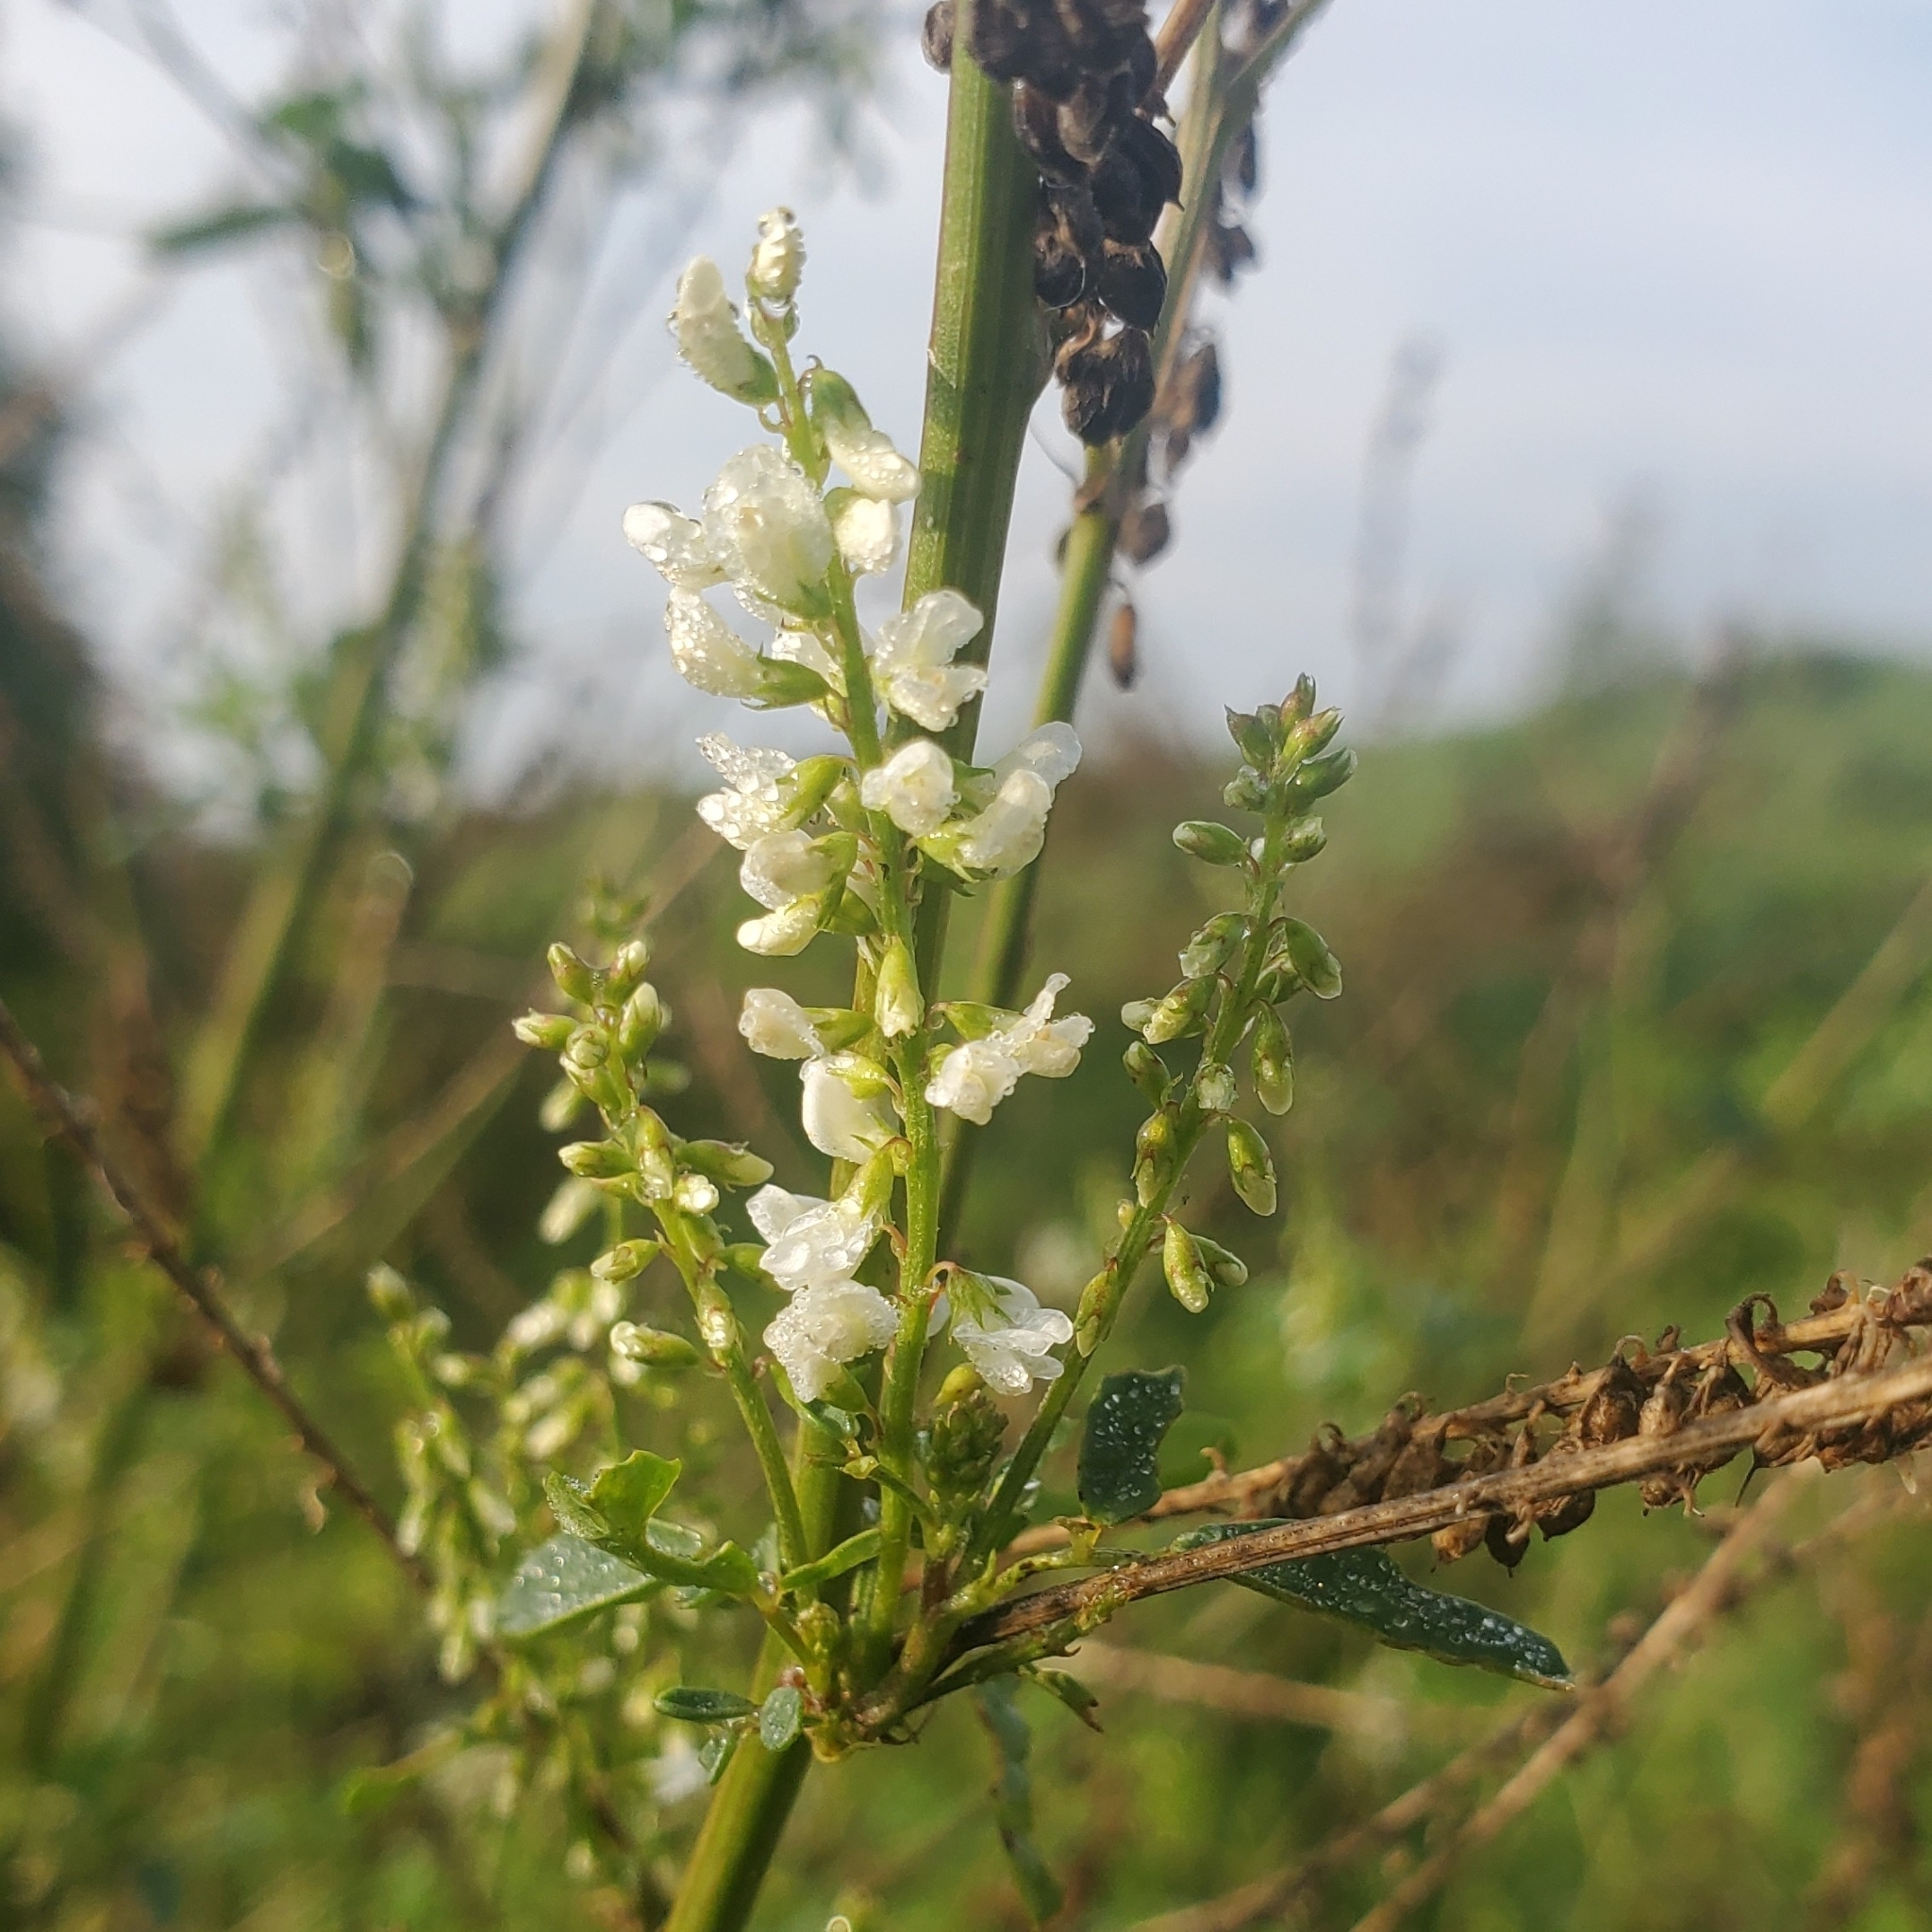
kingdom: Plantae
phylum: Tracheophyta
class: Magnoliopsida
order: Fabales
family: Fabaceae
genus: Melilotus
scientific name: Melilotus albus
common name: White melilot
